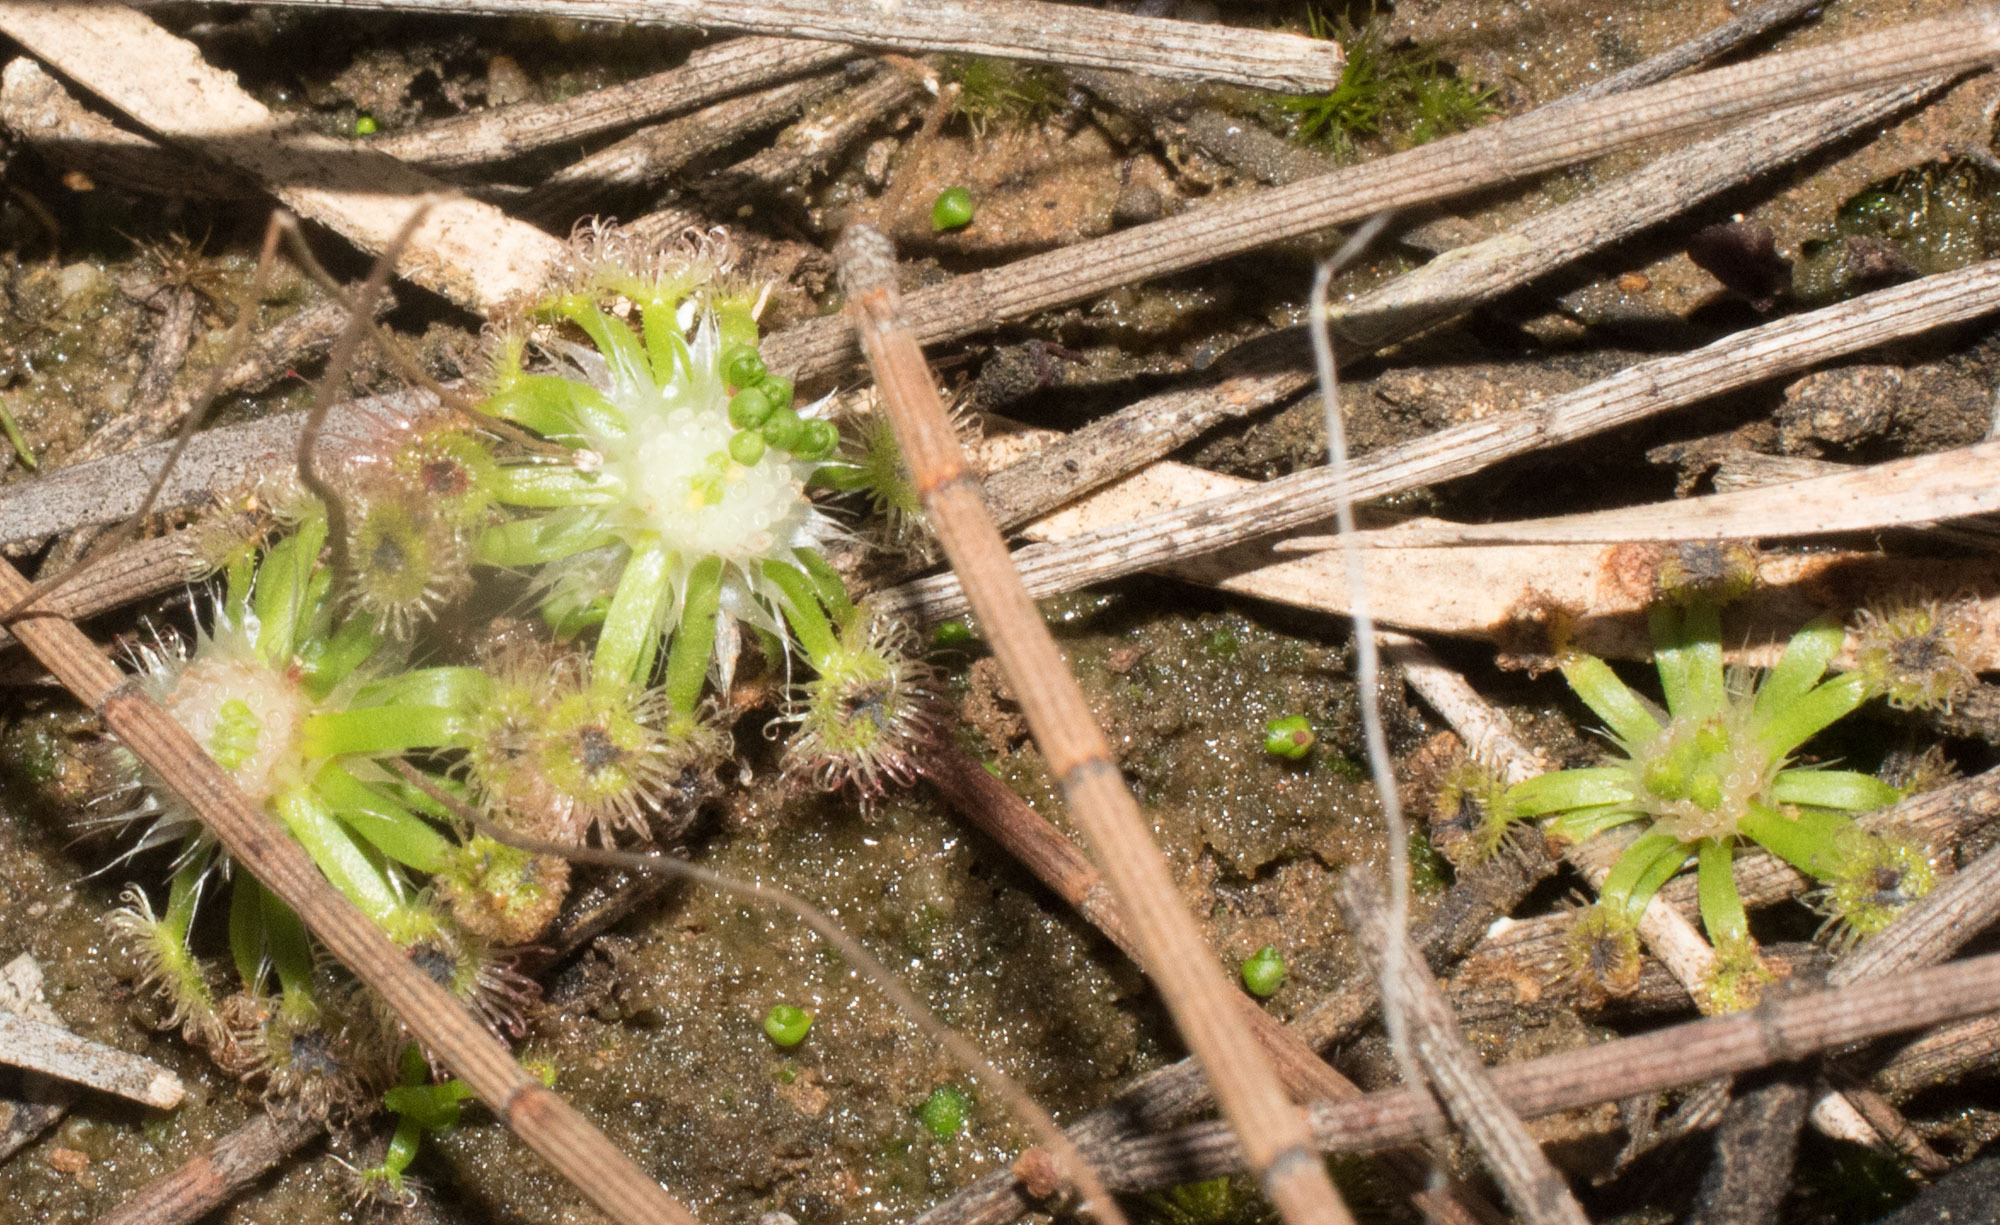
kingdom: Plantae
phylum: Tracheophyta
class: Magnoliopsida
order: Caryophyllales
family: Droseraceae
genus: Drosera
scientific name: Drosera androsacea
